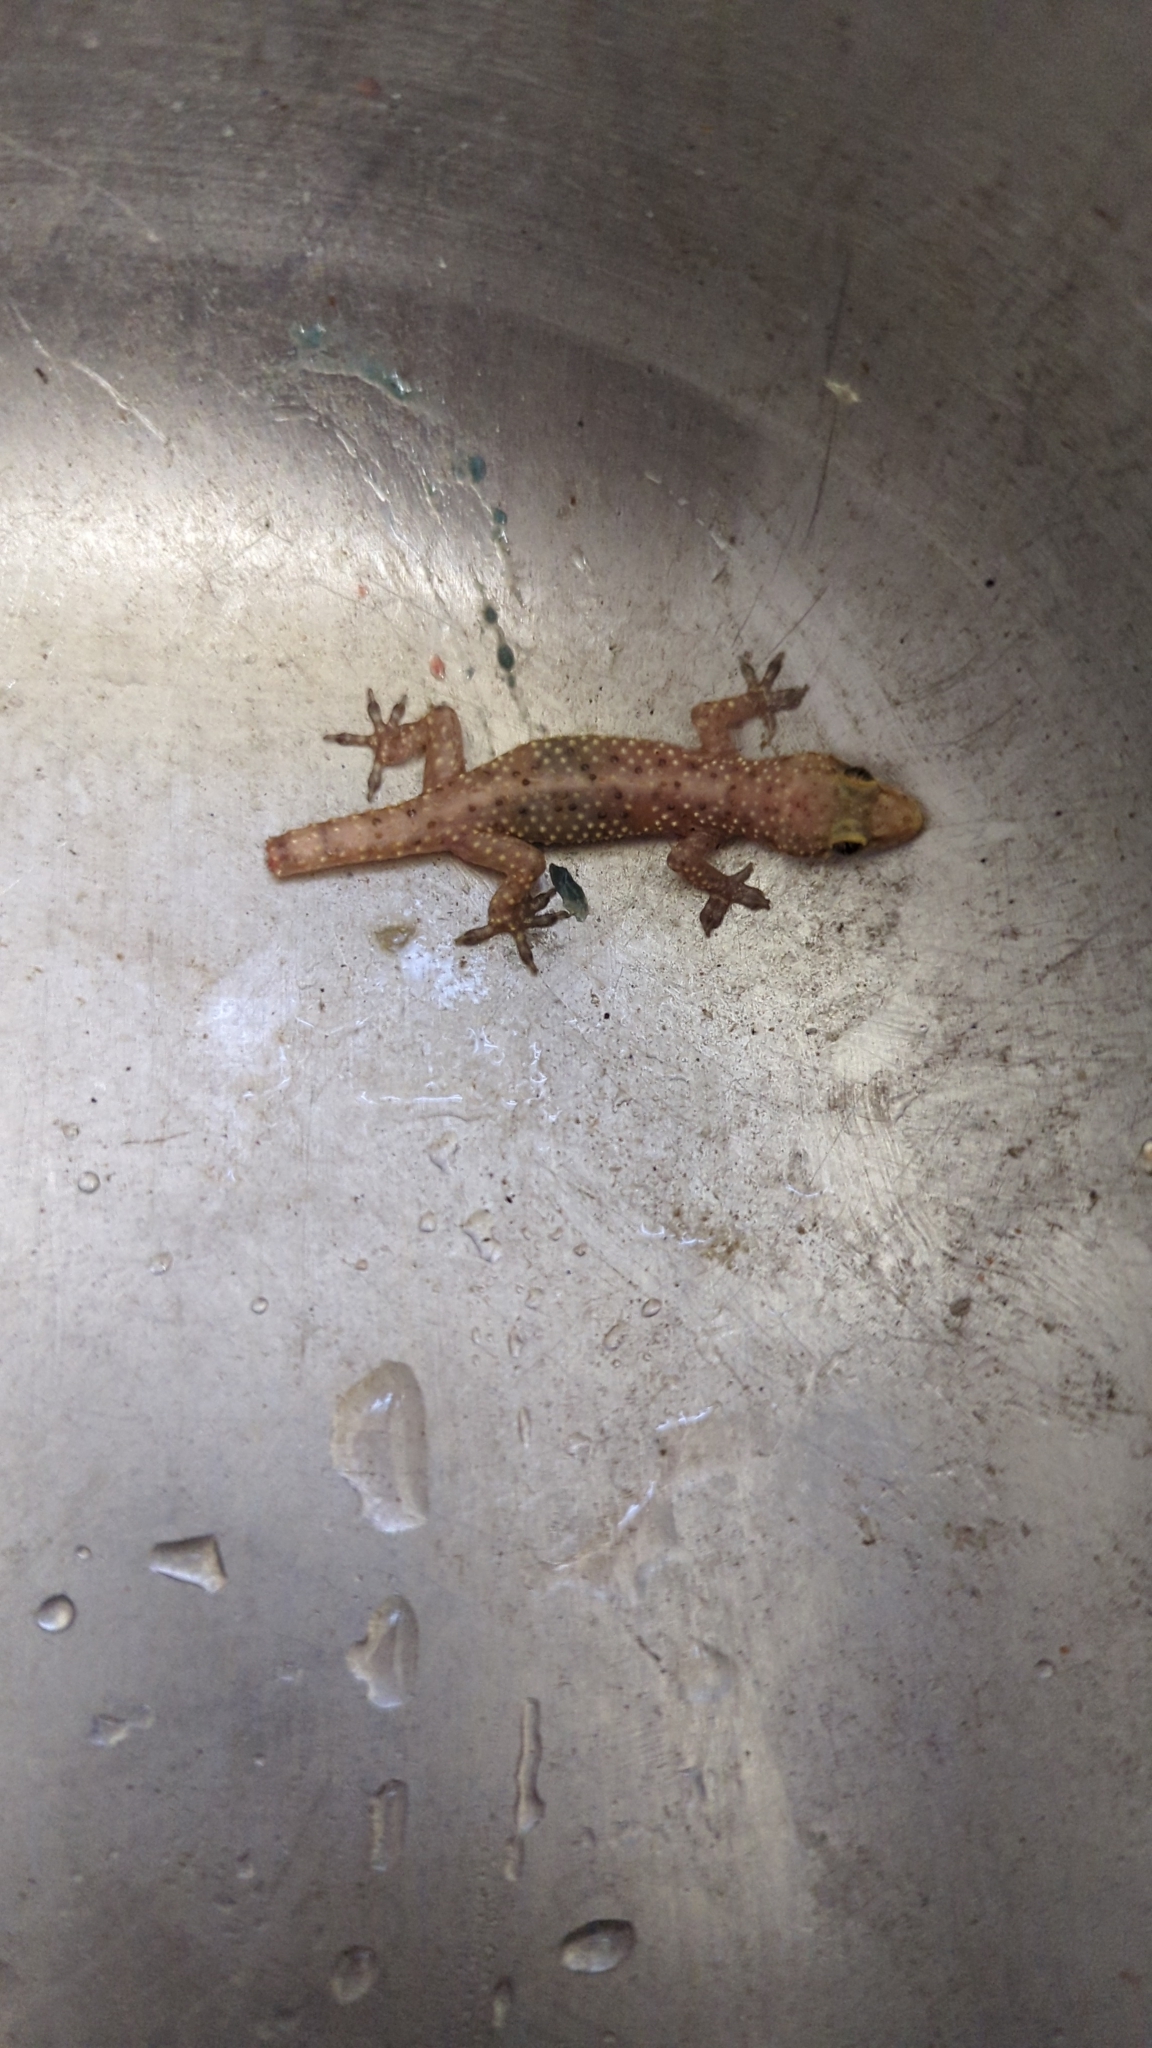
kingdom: Animalia
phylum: Chordata
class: Squamata
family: Gekkonidae
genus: Hemidactylus
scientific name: Hemidactylus turcicus
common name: Turkish gecko
